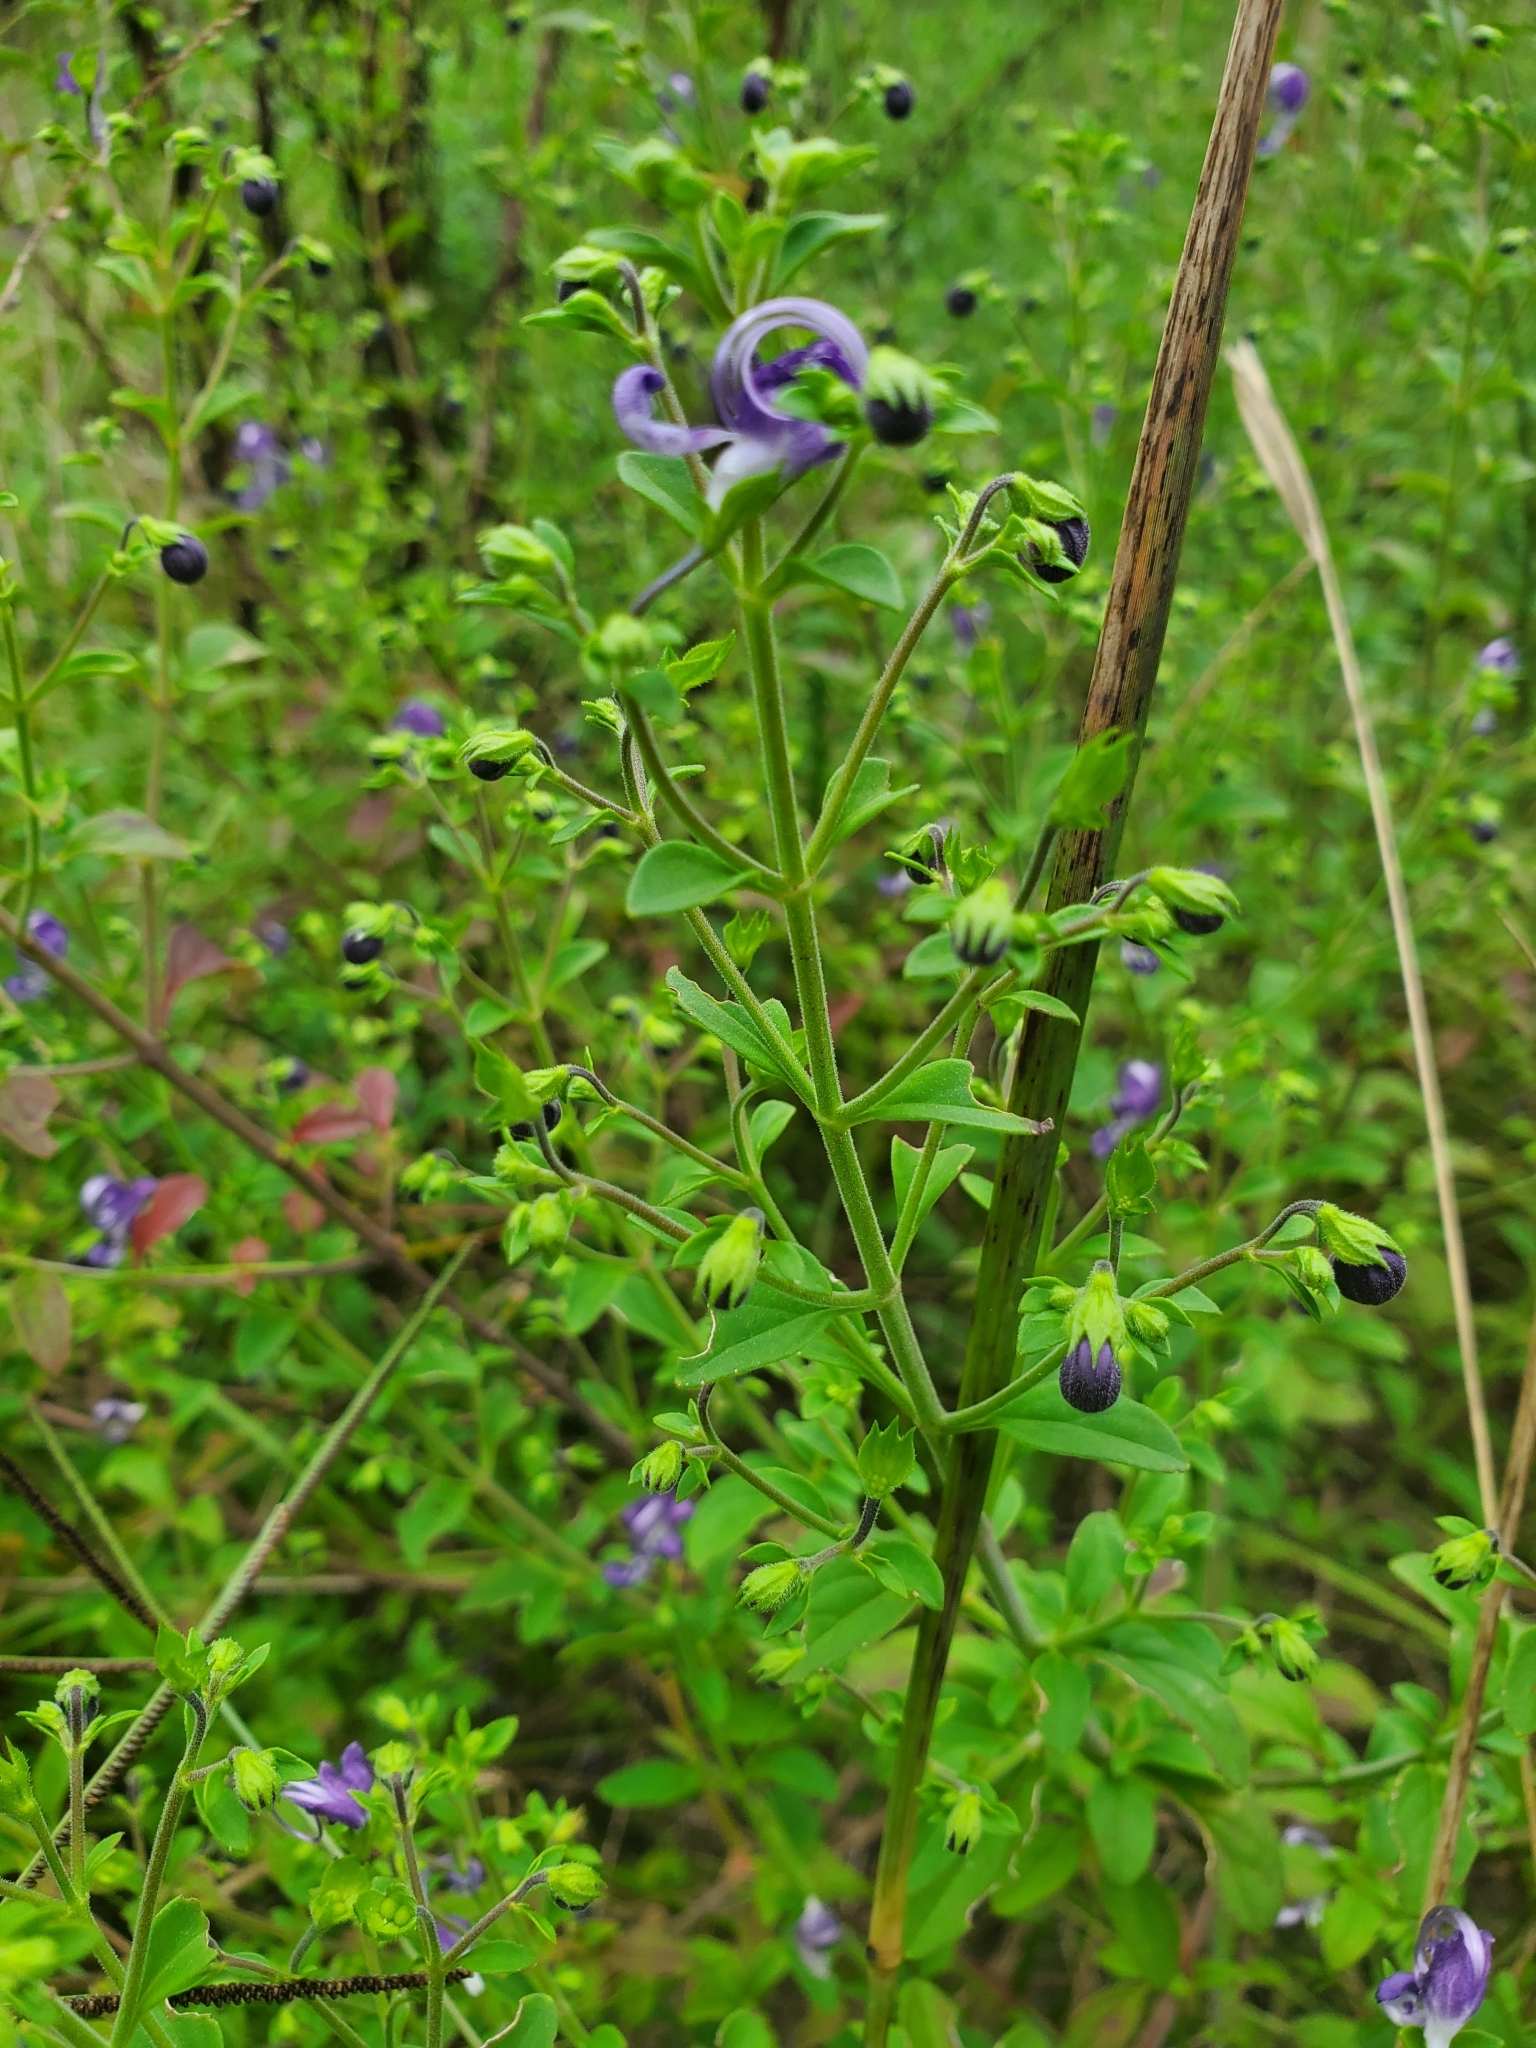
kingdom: Plantae
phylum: Tracheophyta
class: Magnoliopsida
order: Lamiales
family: Lamiaceae
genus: Trichostema
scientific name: Trichostema fruticosum
